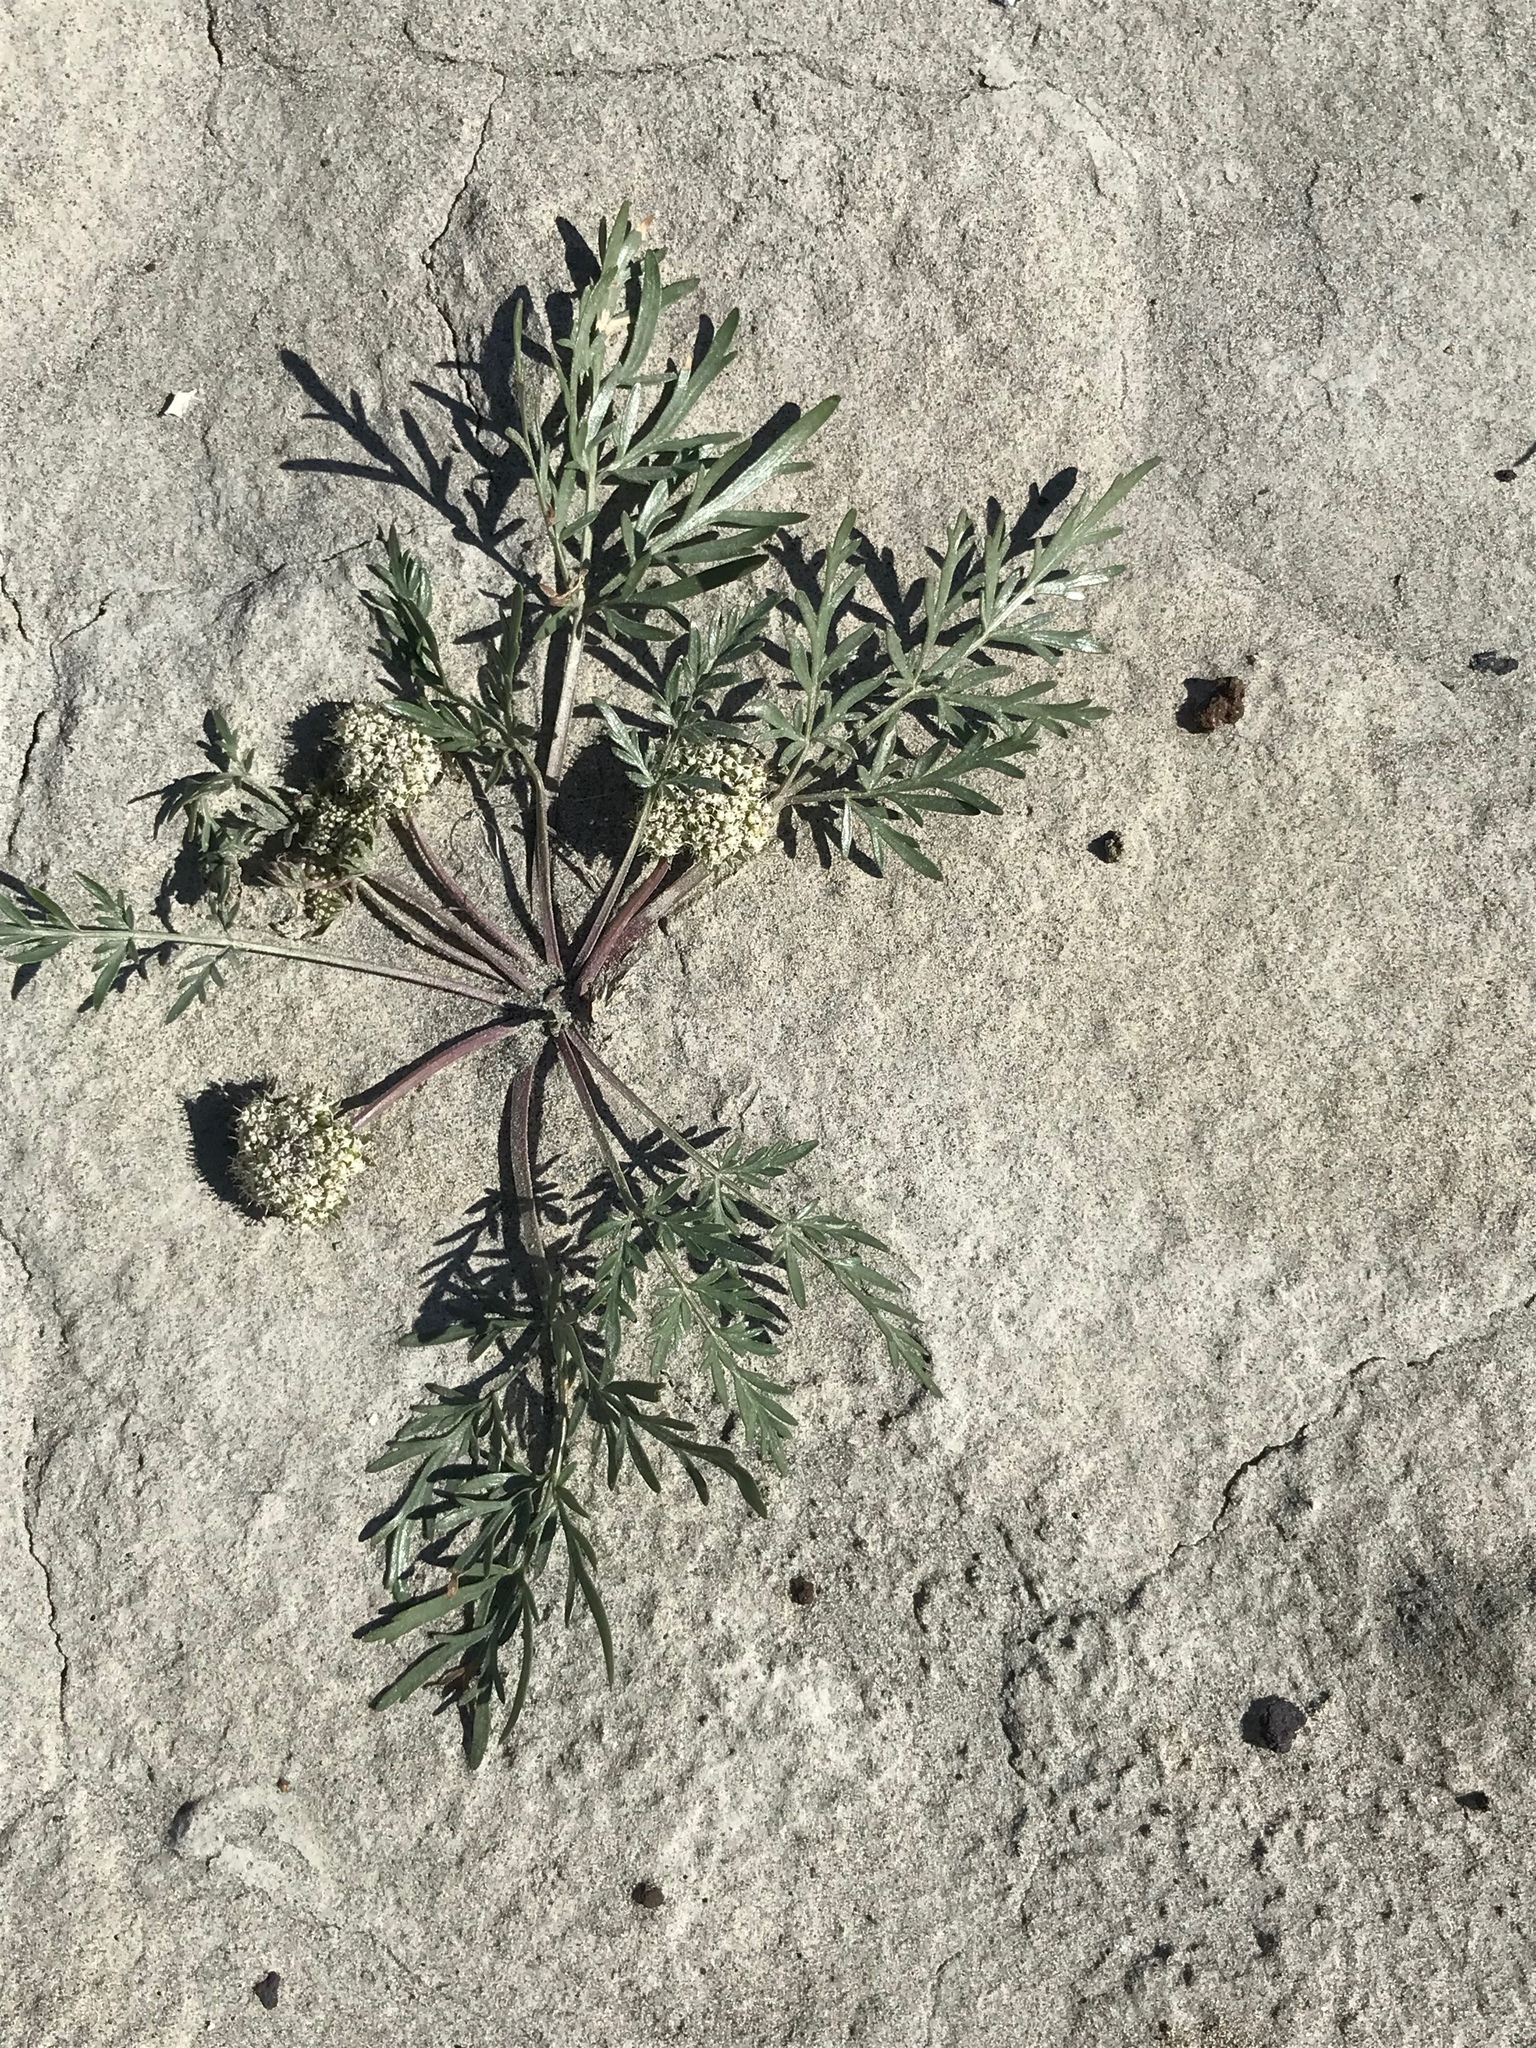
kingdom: Plantae
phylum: Tracheophyta
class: Magnoliopsida
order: Apiales
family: Apiaceae
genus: Cymopterus
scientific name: Cymopterus glomeratus
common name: Plains spring parsley
